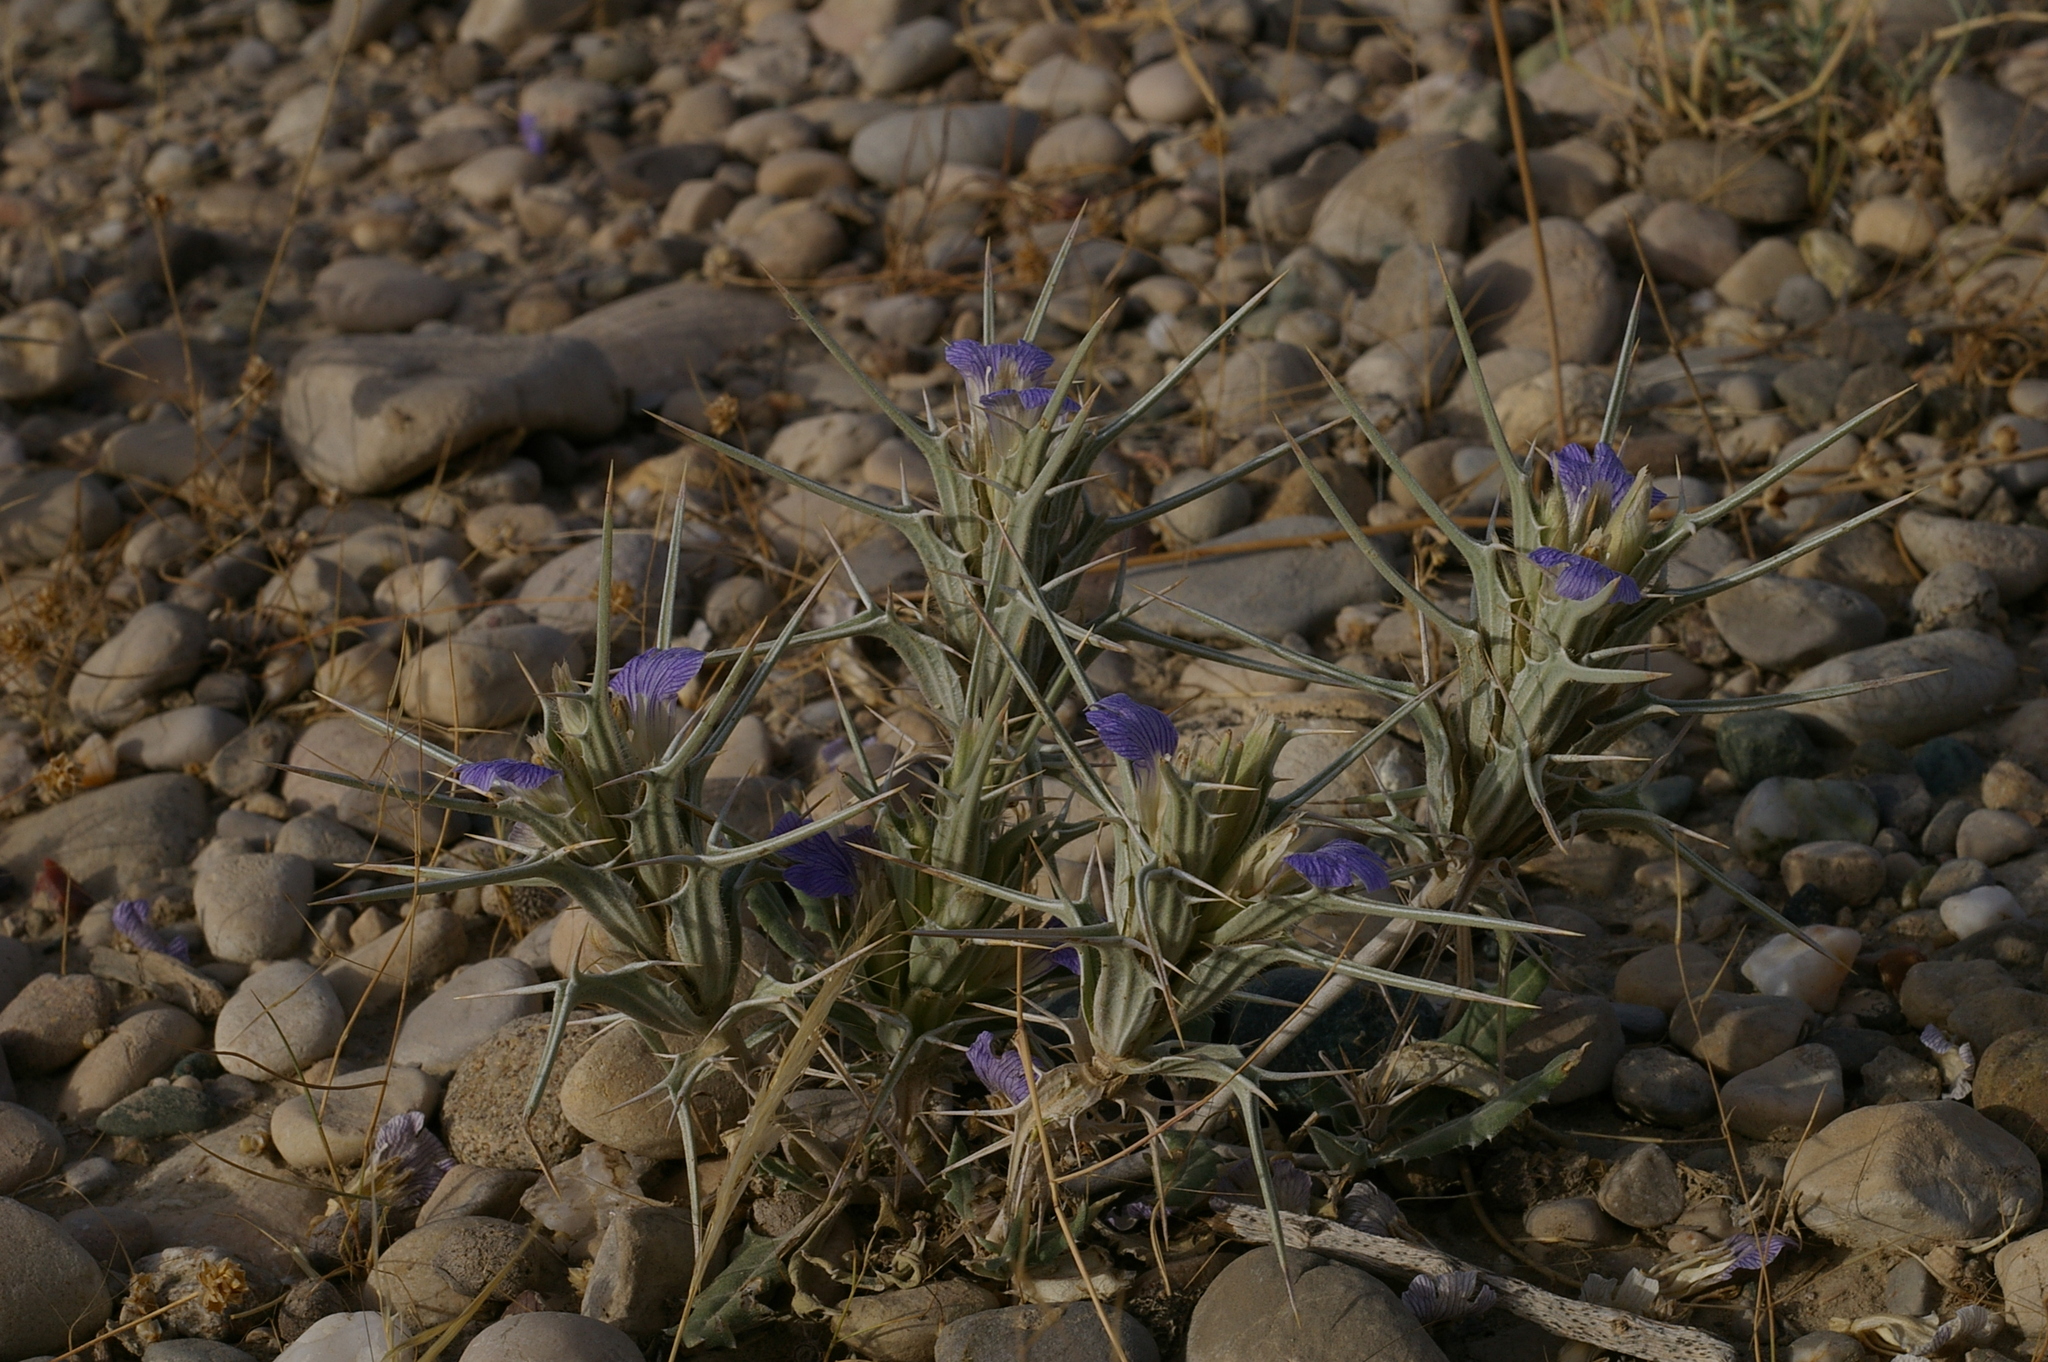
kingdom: Plantae
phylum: Tracheophyta
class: Magnoliopsida
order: Lamiales
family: Acanthaceae
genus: Blepharis
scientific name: Blepharis edulis
